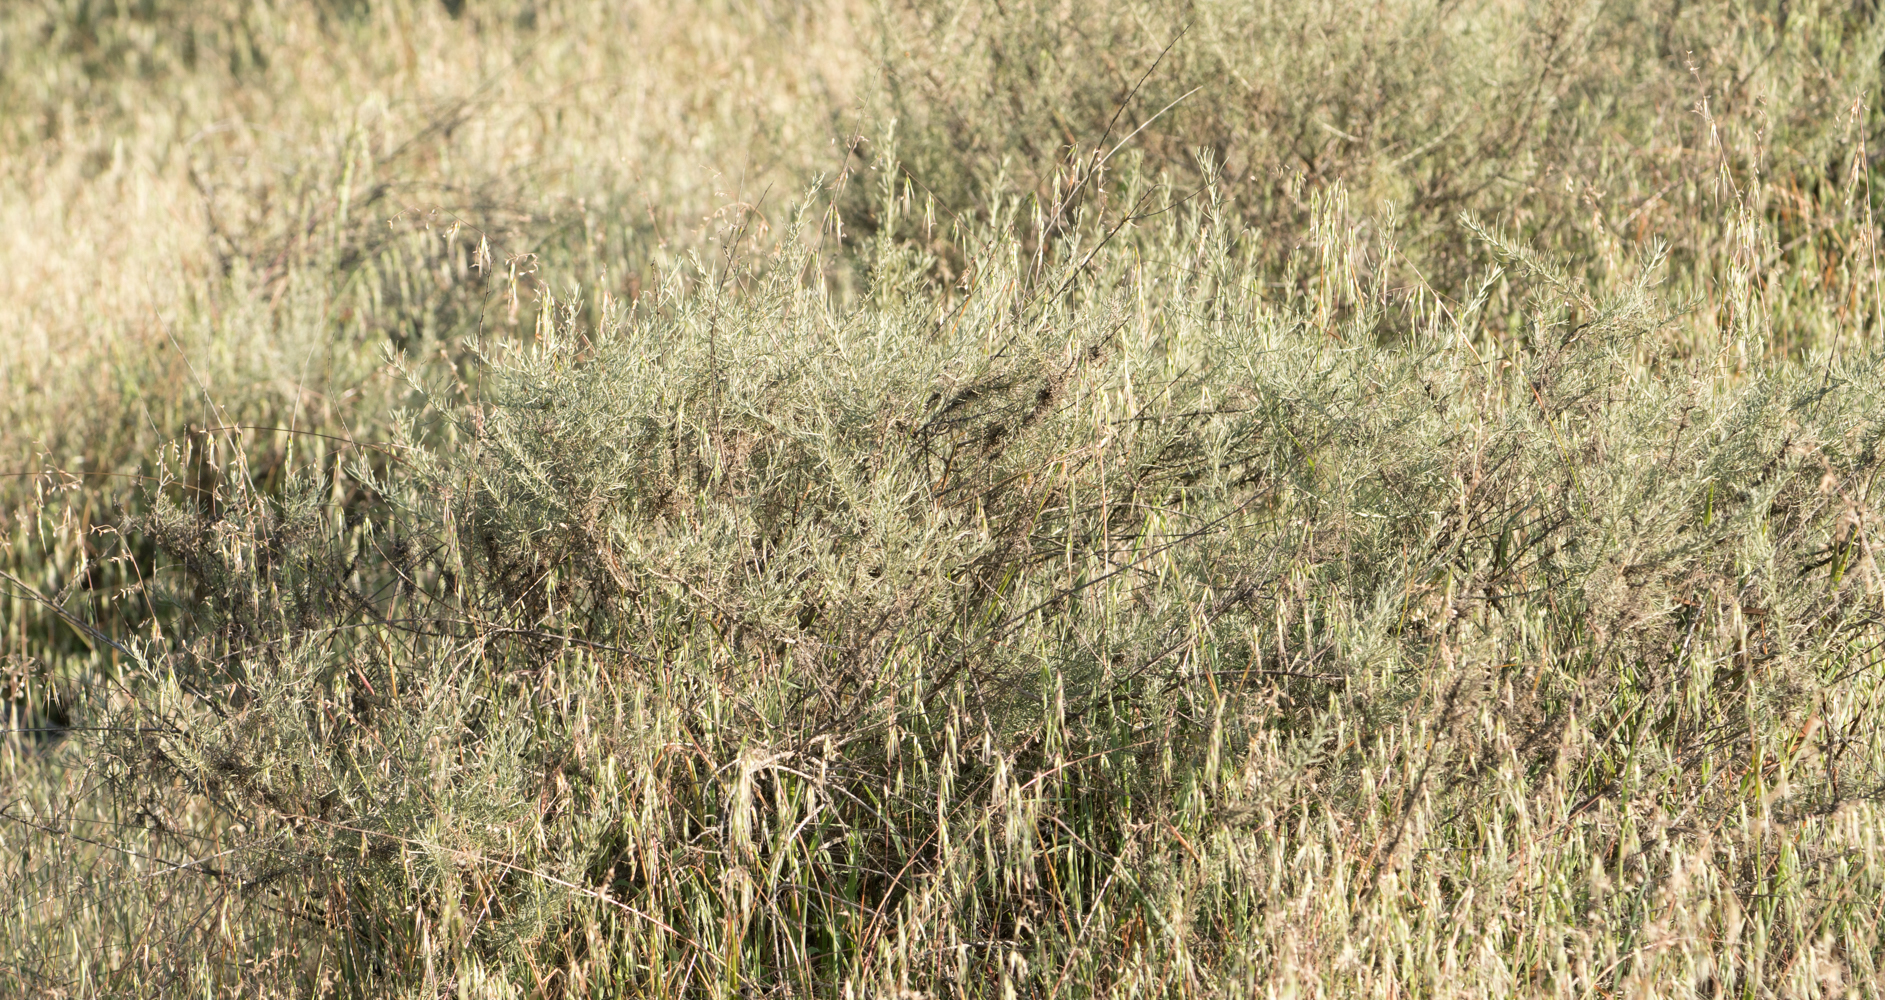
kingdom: Plantae
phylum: Tracheophyta
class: Magnoliopsida
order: Asterales
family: Asteraceae
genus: Artemisia
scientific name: Artemisia californica
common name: California sagebrush
